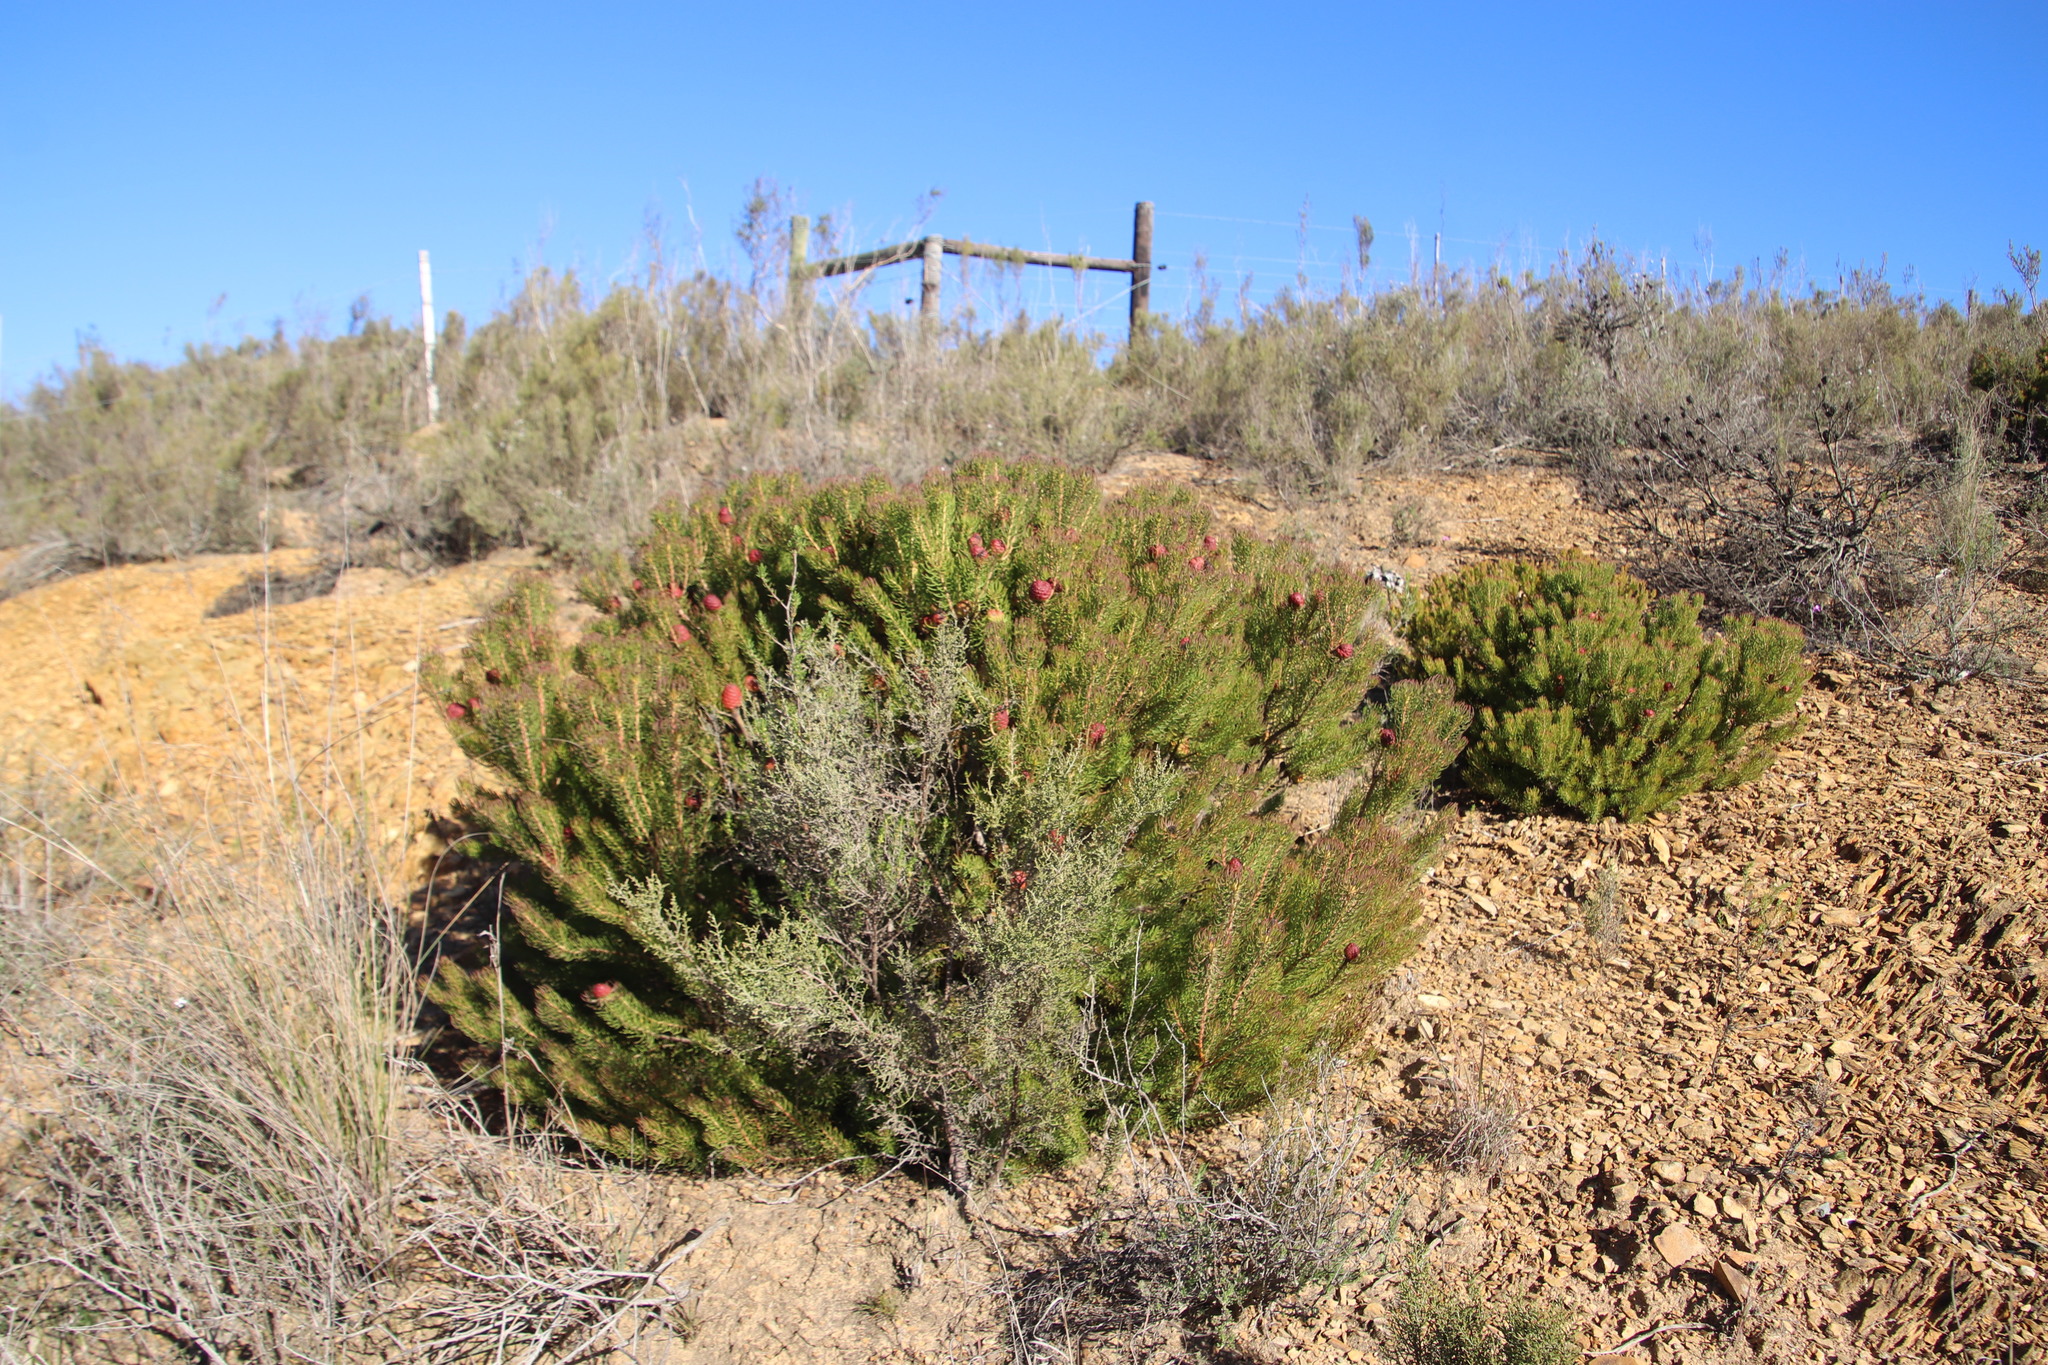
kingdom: Plantae
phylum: Tracheophyta
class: Magnoliopsida
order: Proteales
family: Proteaceae
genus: Leucadendron
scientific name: Leucadendron teretifolium
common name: Needle-leaf conebush
